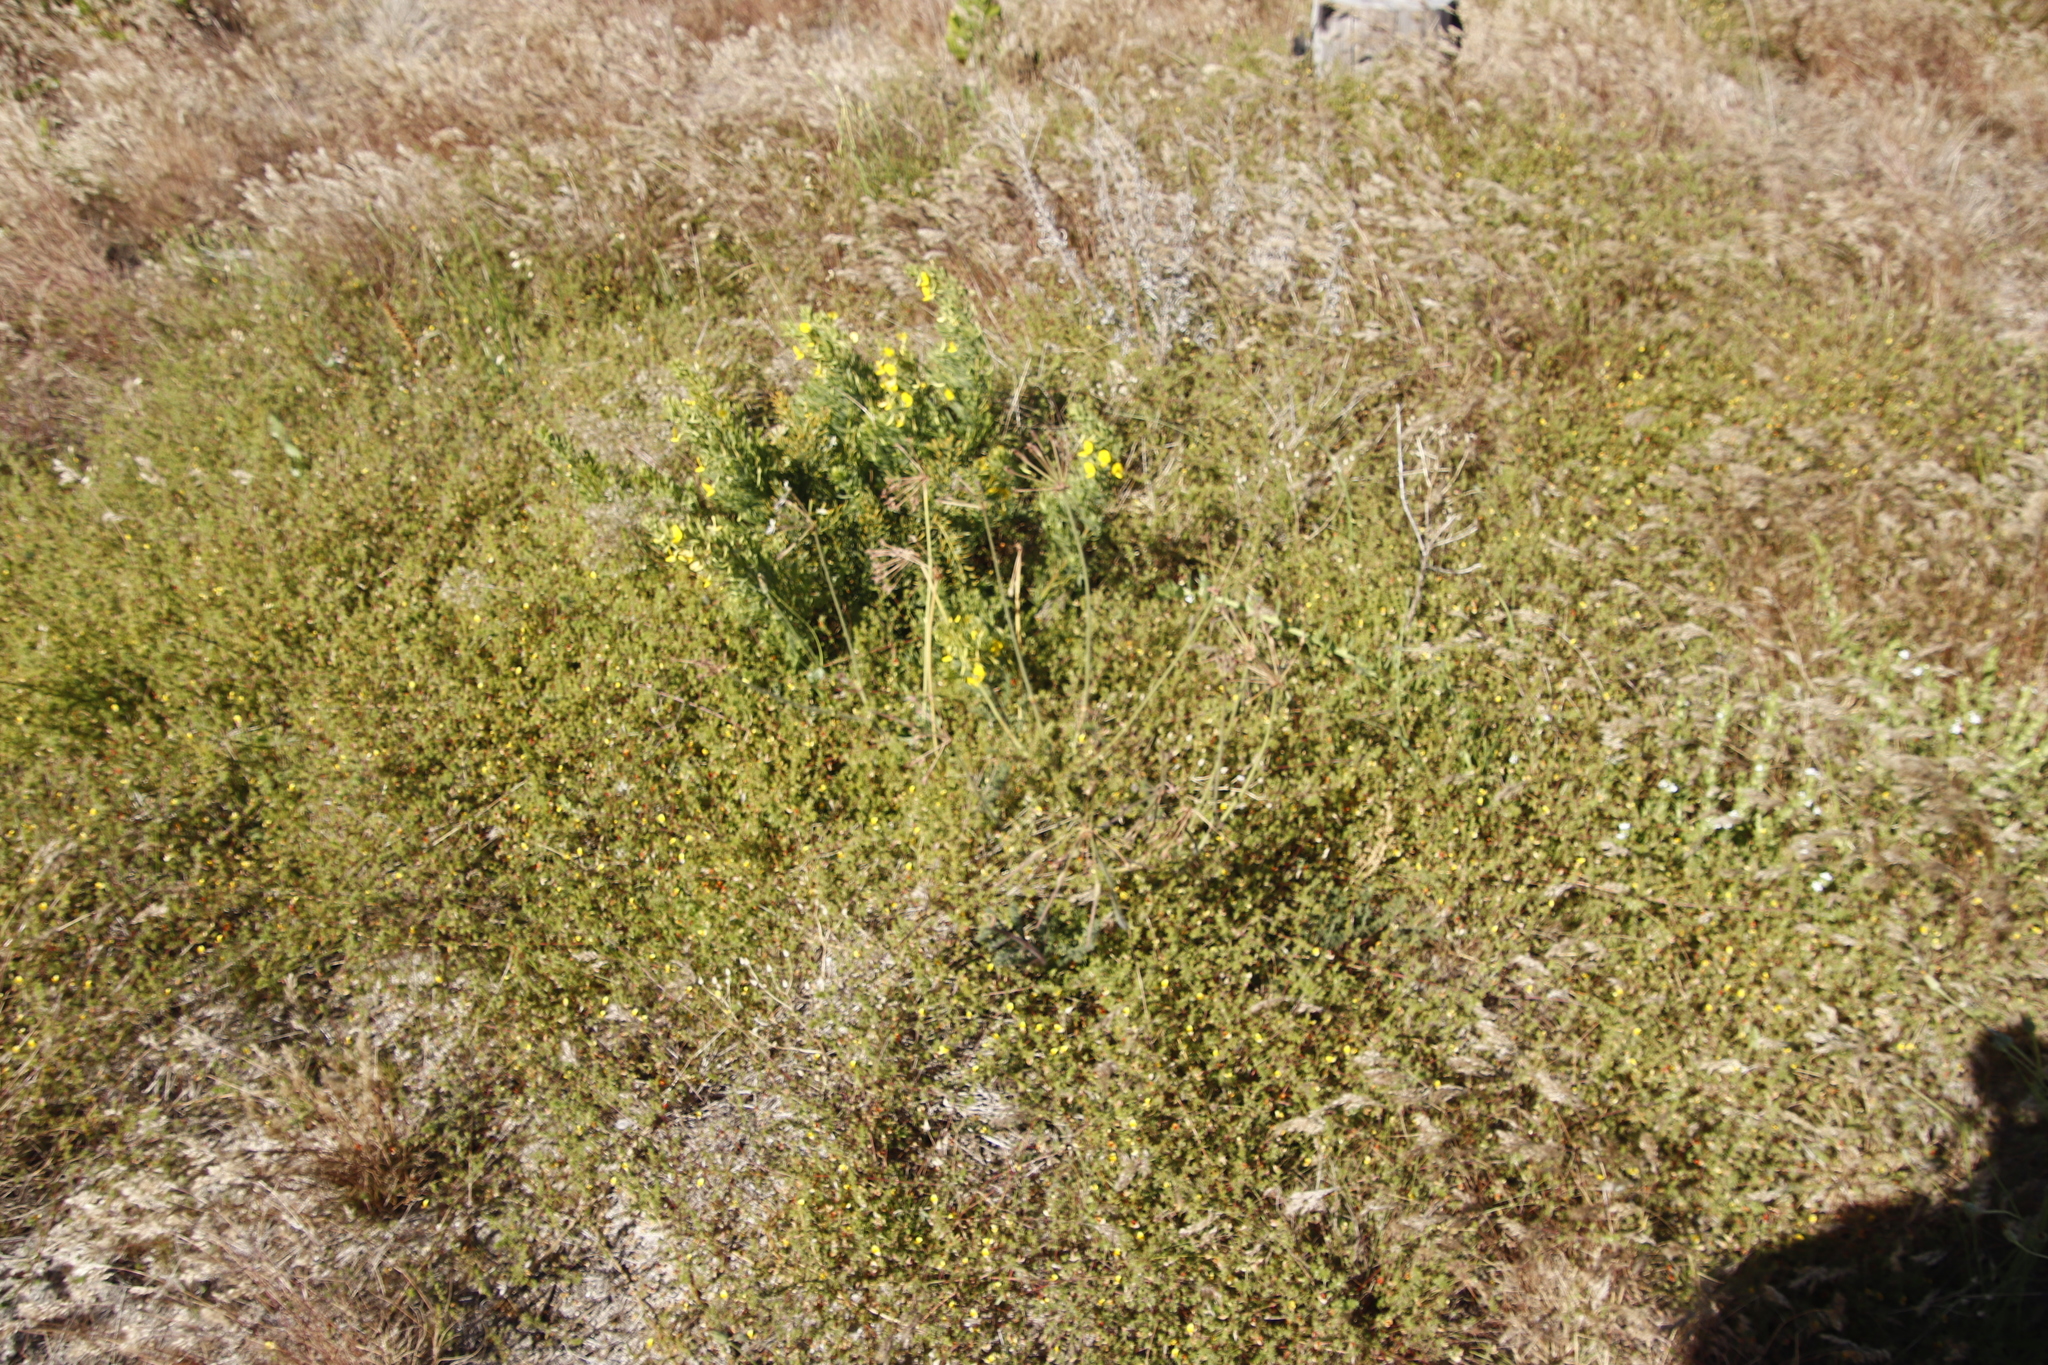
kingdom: Plantae
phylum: Tracheophyta
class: Magnoliopsida
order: Geraniales
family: Geraniaceae
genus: Pelargonium
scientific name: Pelargonium triste
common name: Night-scent pelargonium
